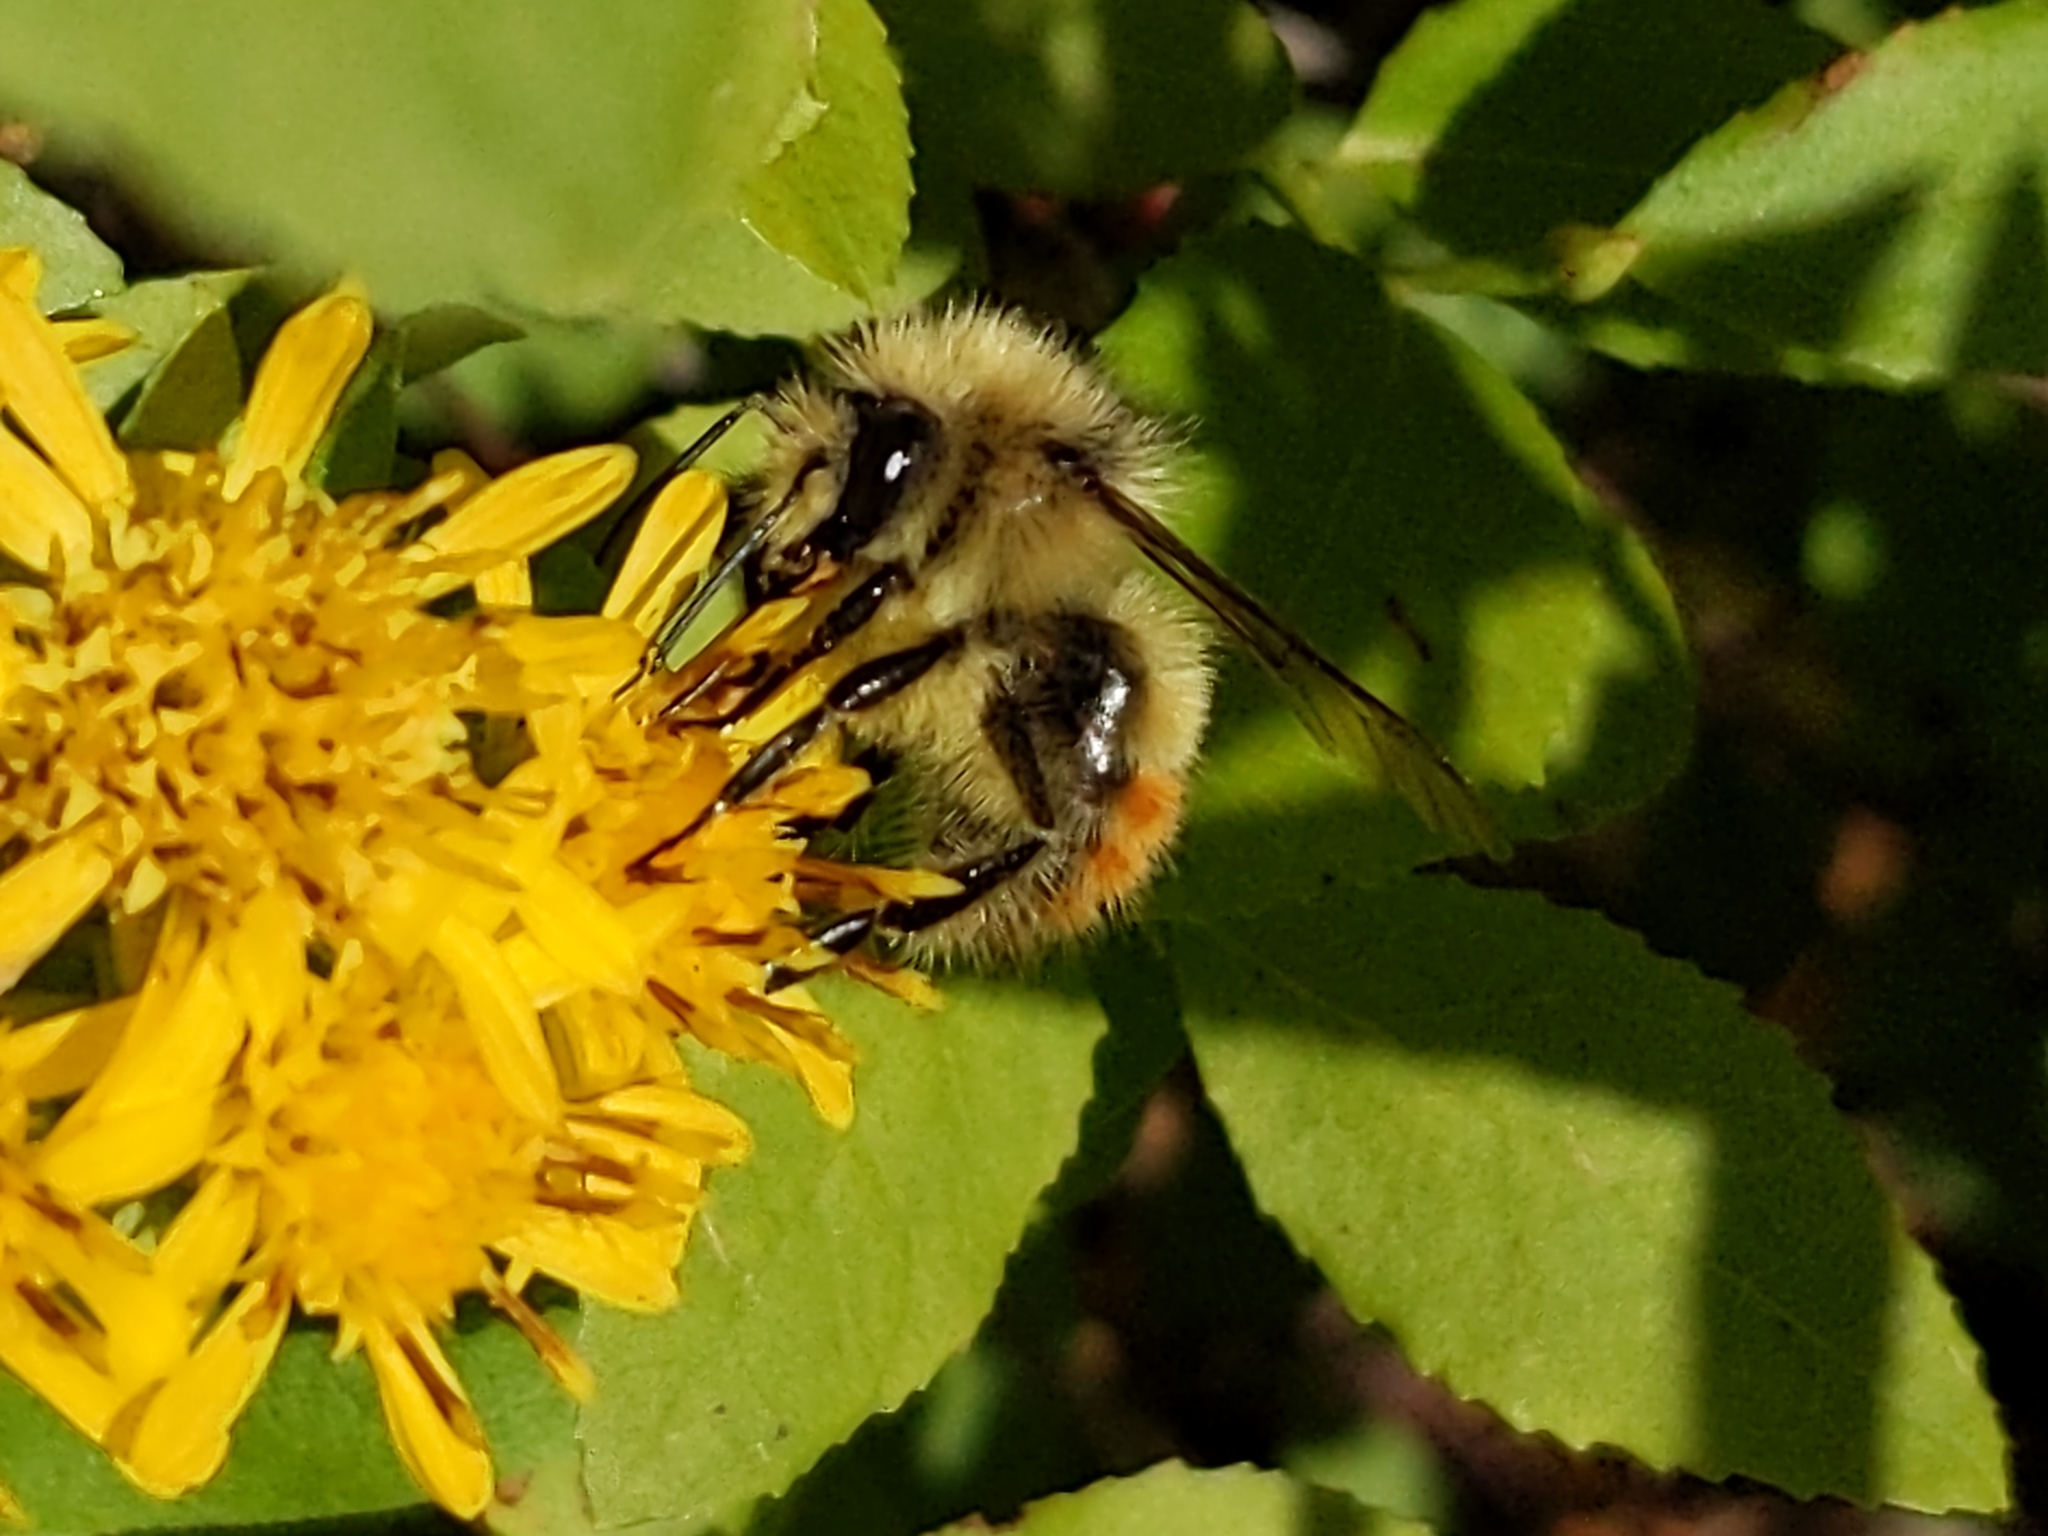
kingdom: Animalia
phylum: Arthropoda
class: Insecta
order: Hymenoptera
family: Apidae
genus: Bombus
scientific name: Bombus flavifrons
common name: Yellow head bumble bee
